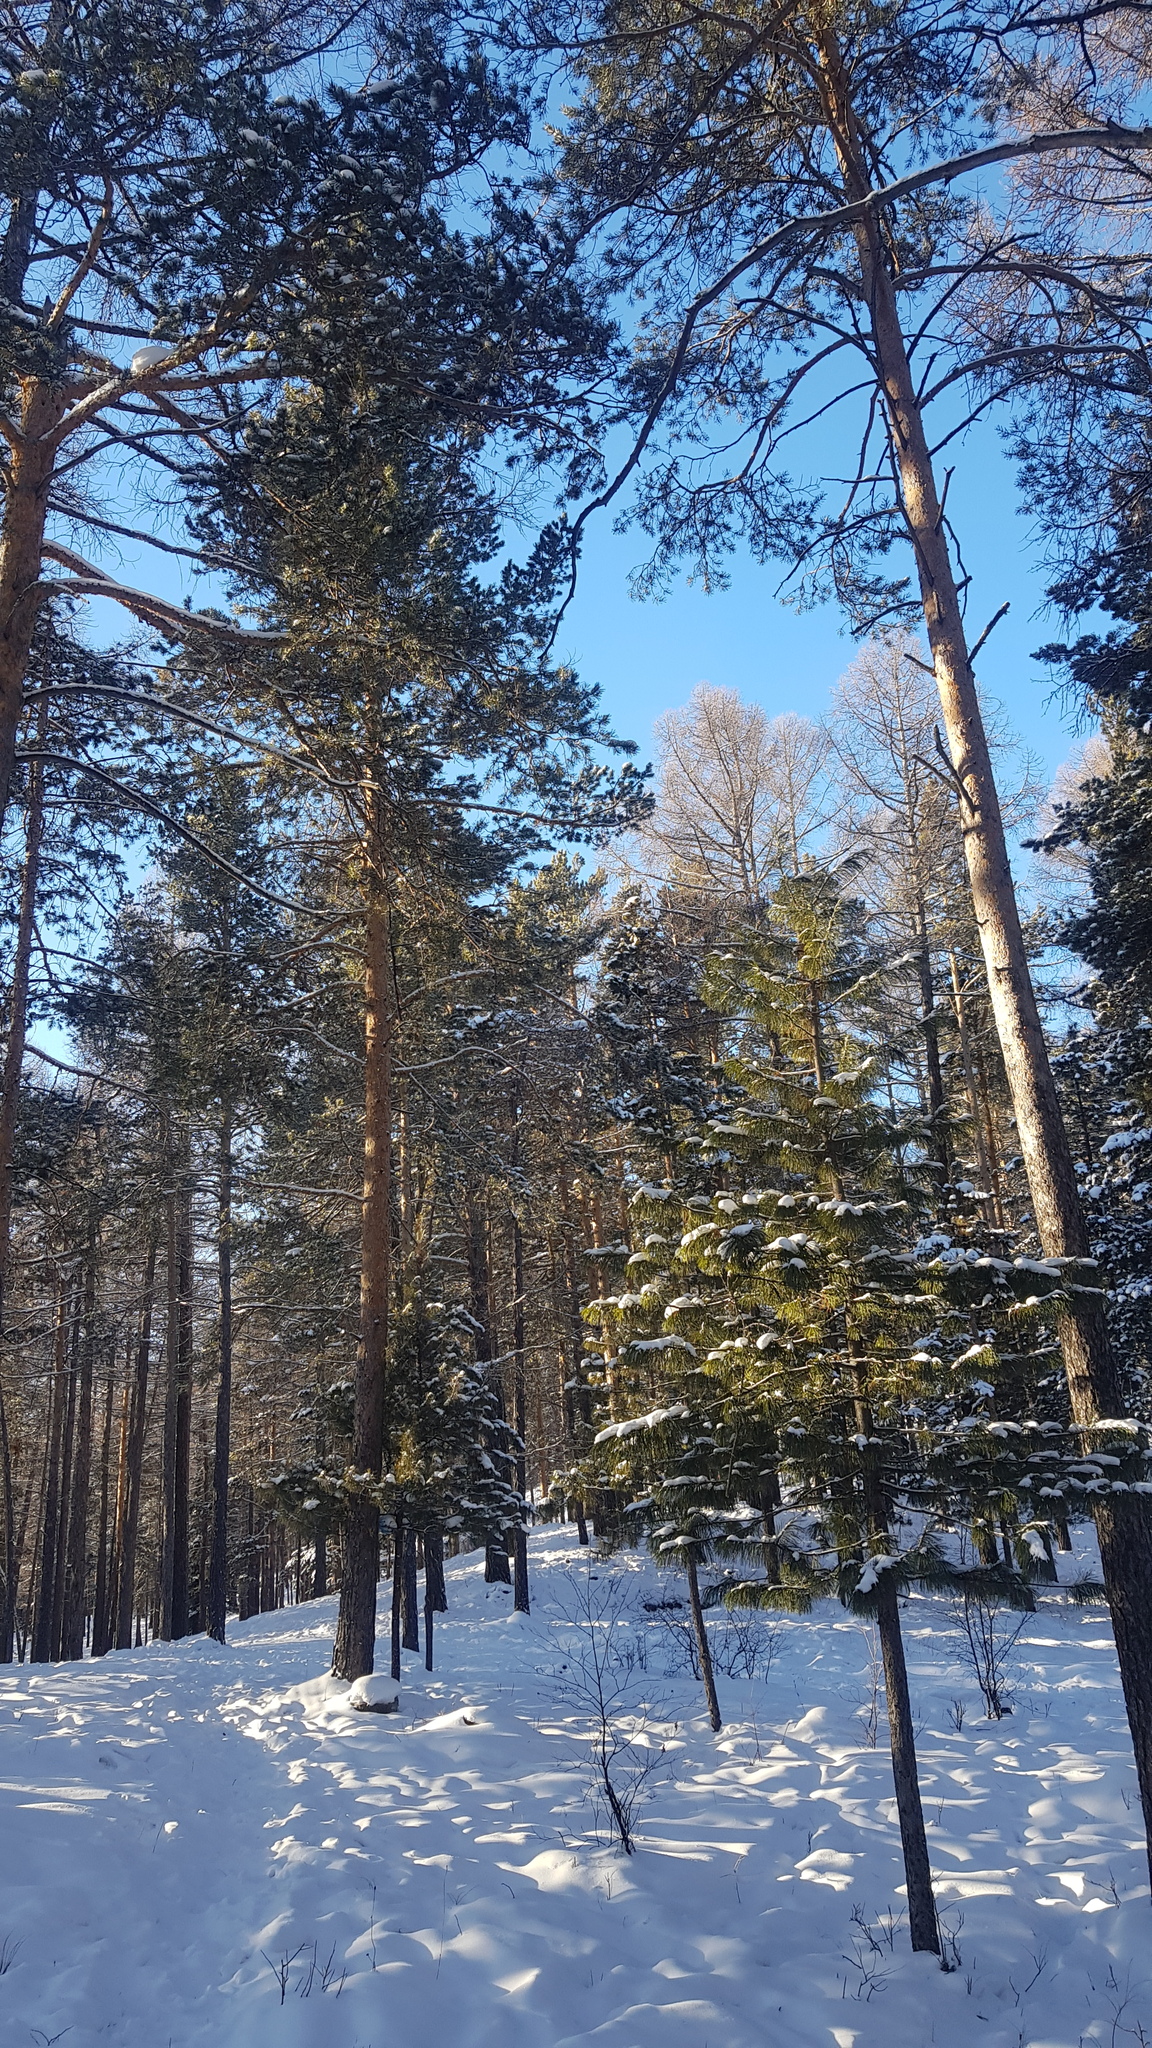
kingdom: Plantae
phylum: Tracheophyta
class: Pinopsida
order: Pinales
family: Pinaceae
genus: Pinus
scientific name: Pinus sylvestris
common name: Scots pine
